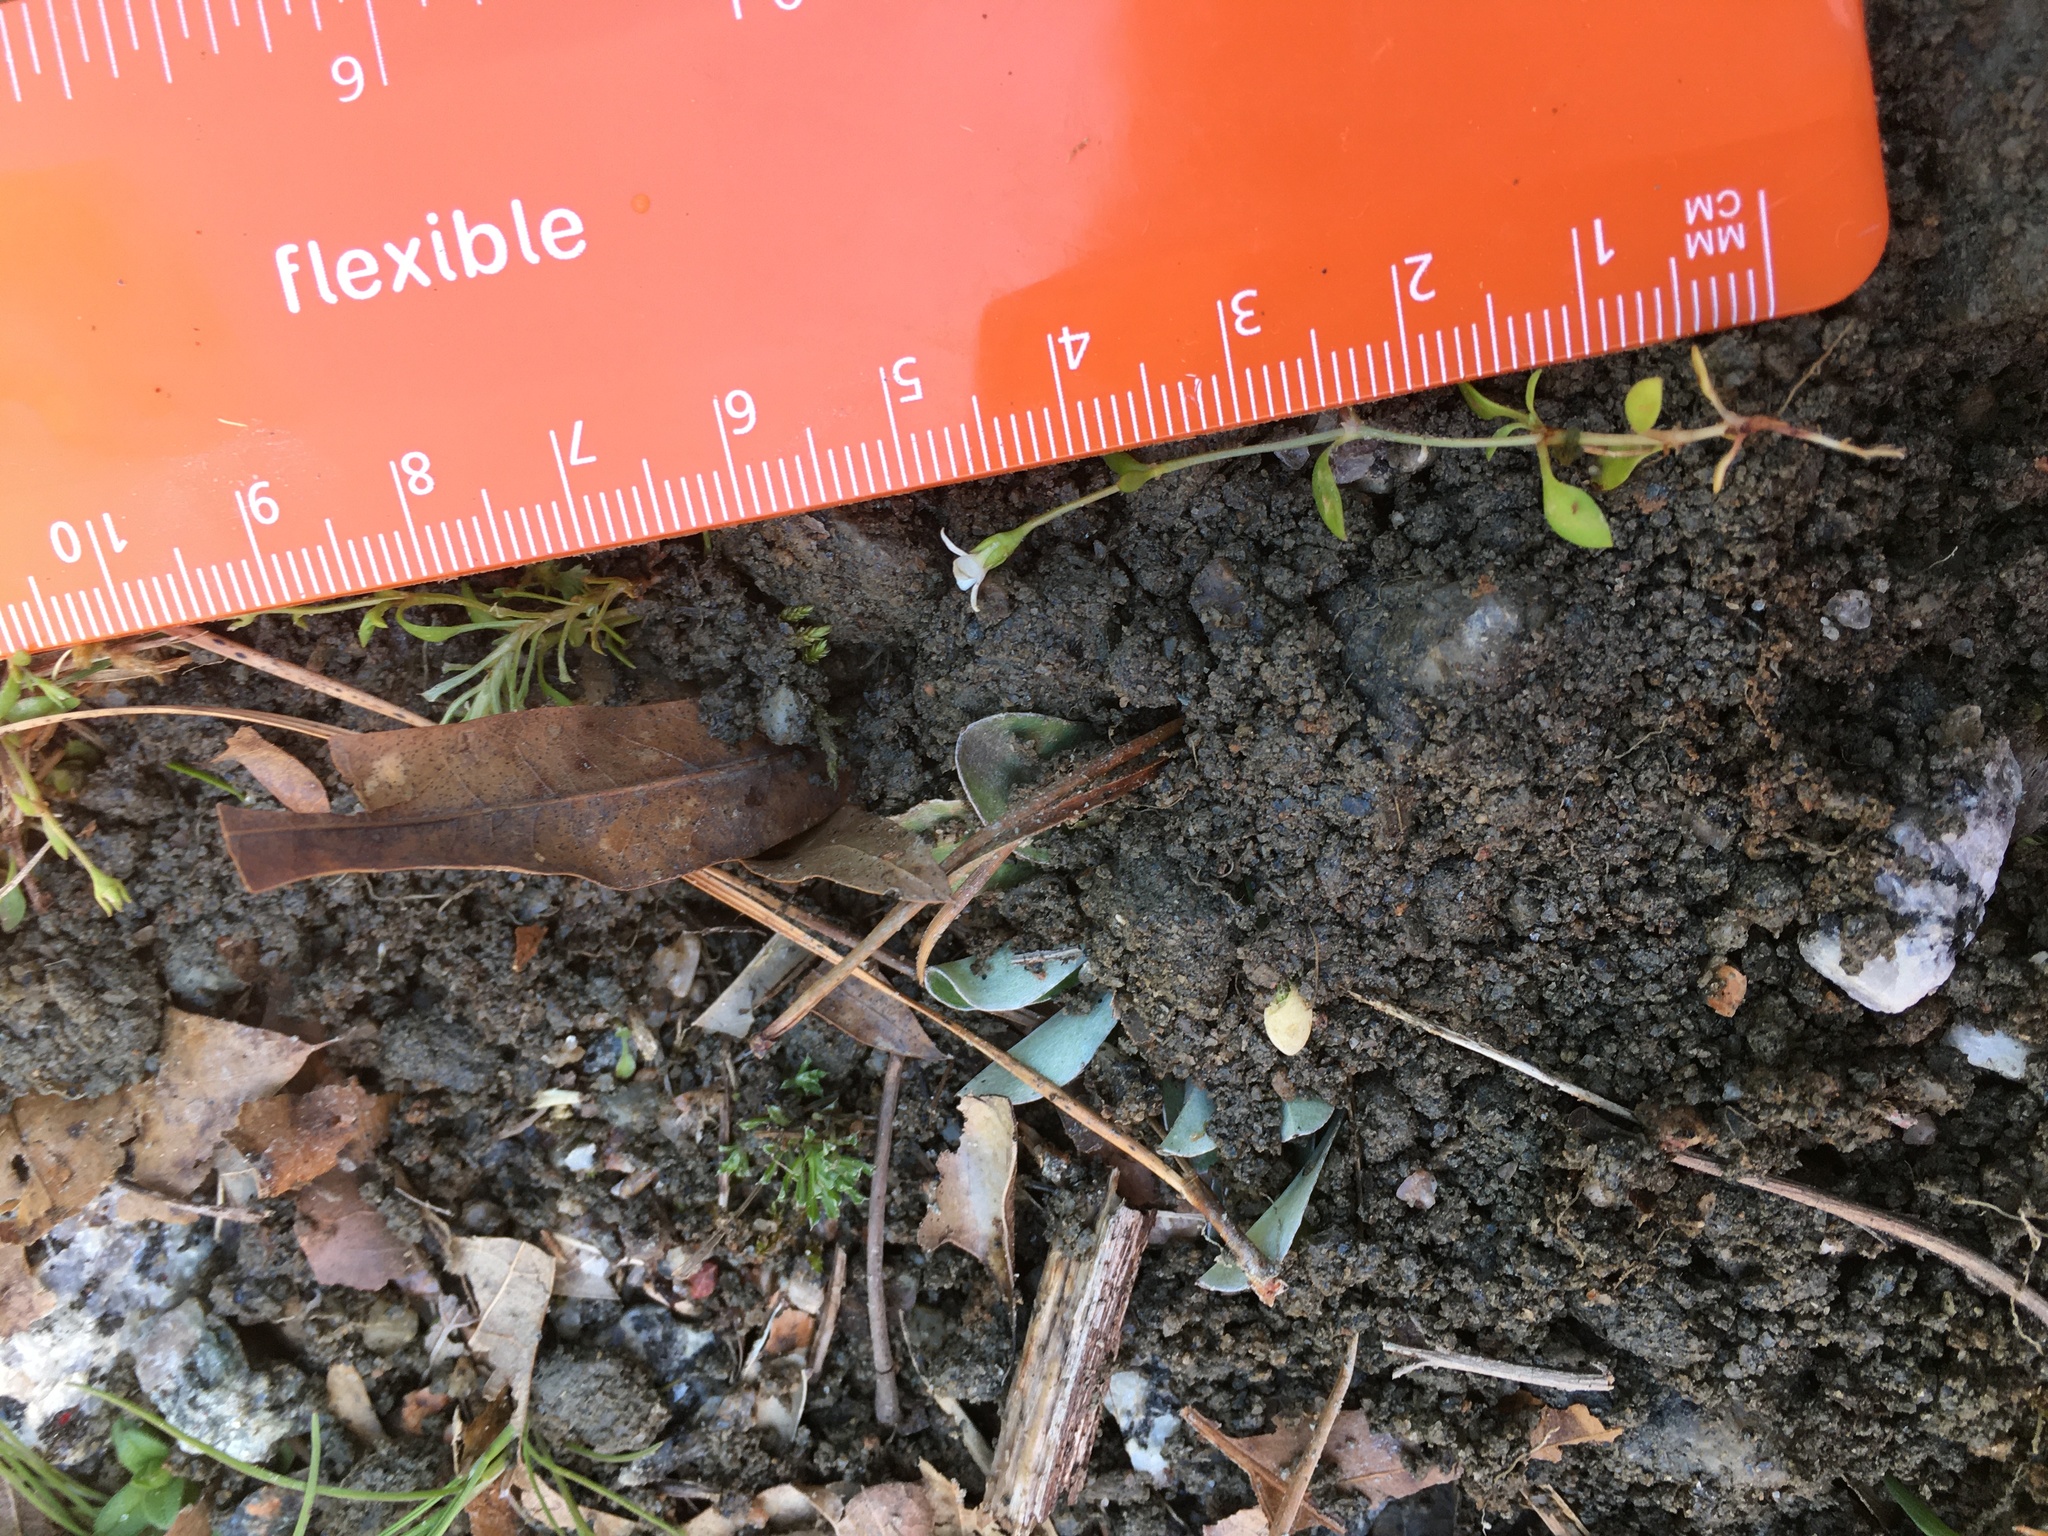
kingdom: Plantae
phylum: Tracheophyta
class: Magnoliopsida
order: Gentianales
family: Rubiaceae
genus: Houstonia
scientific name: Houstonia micrantha
